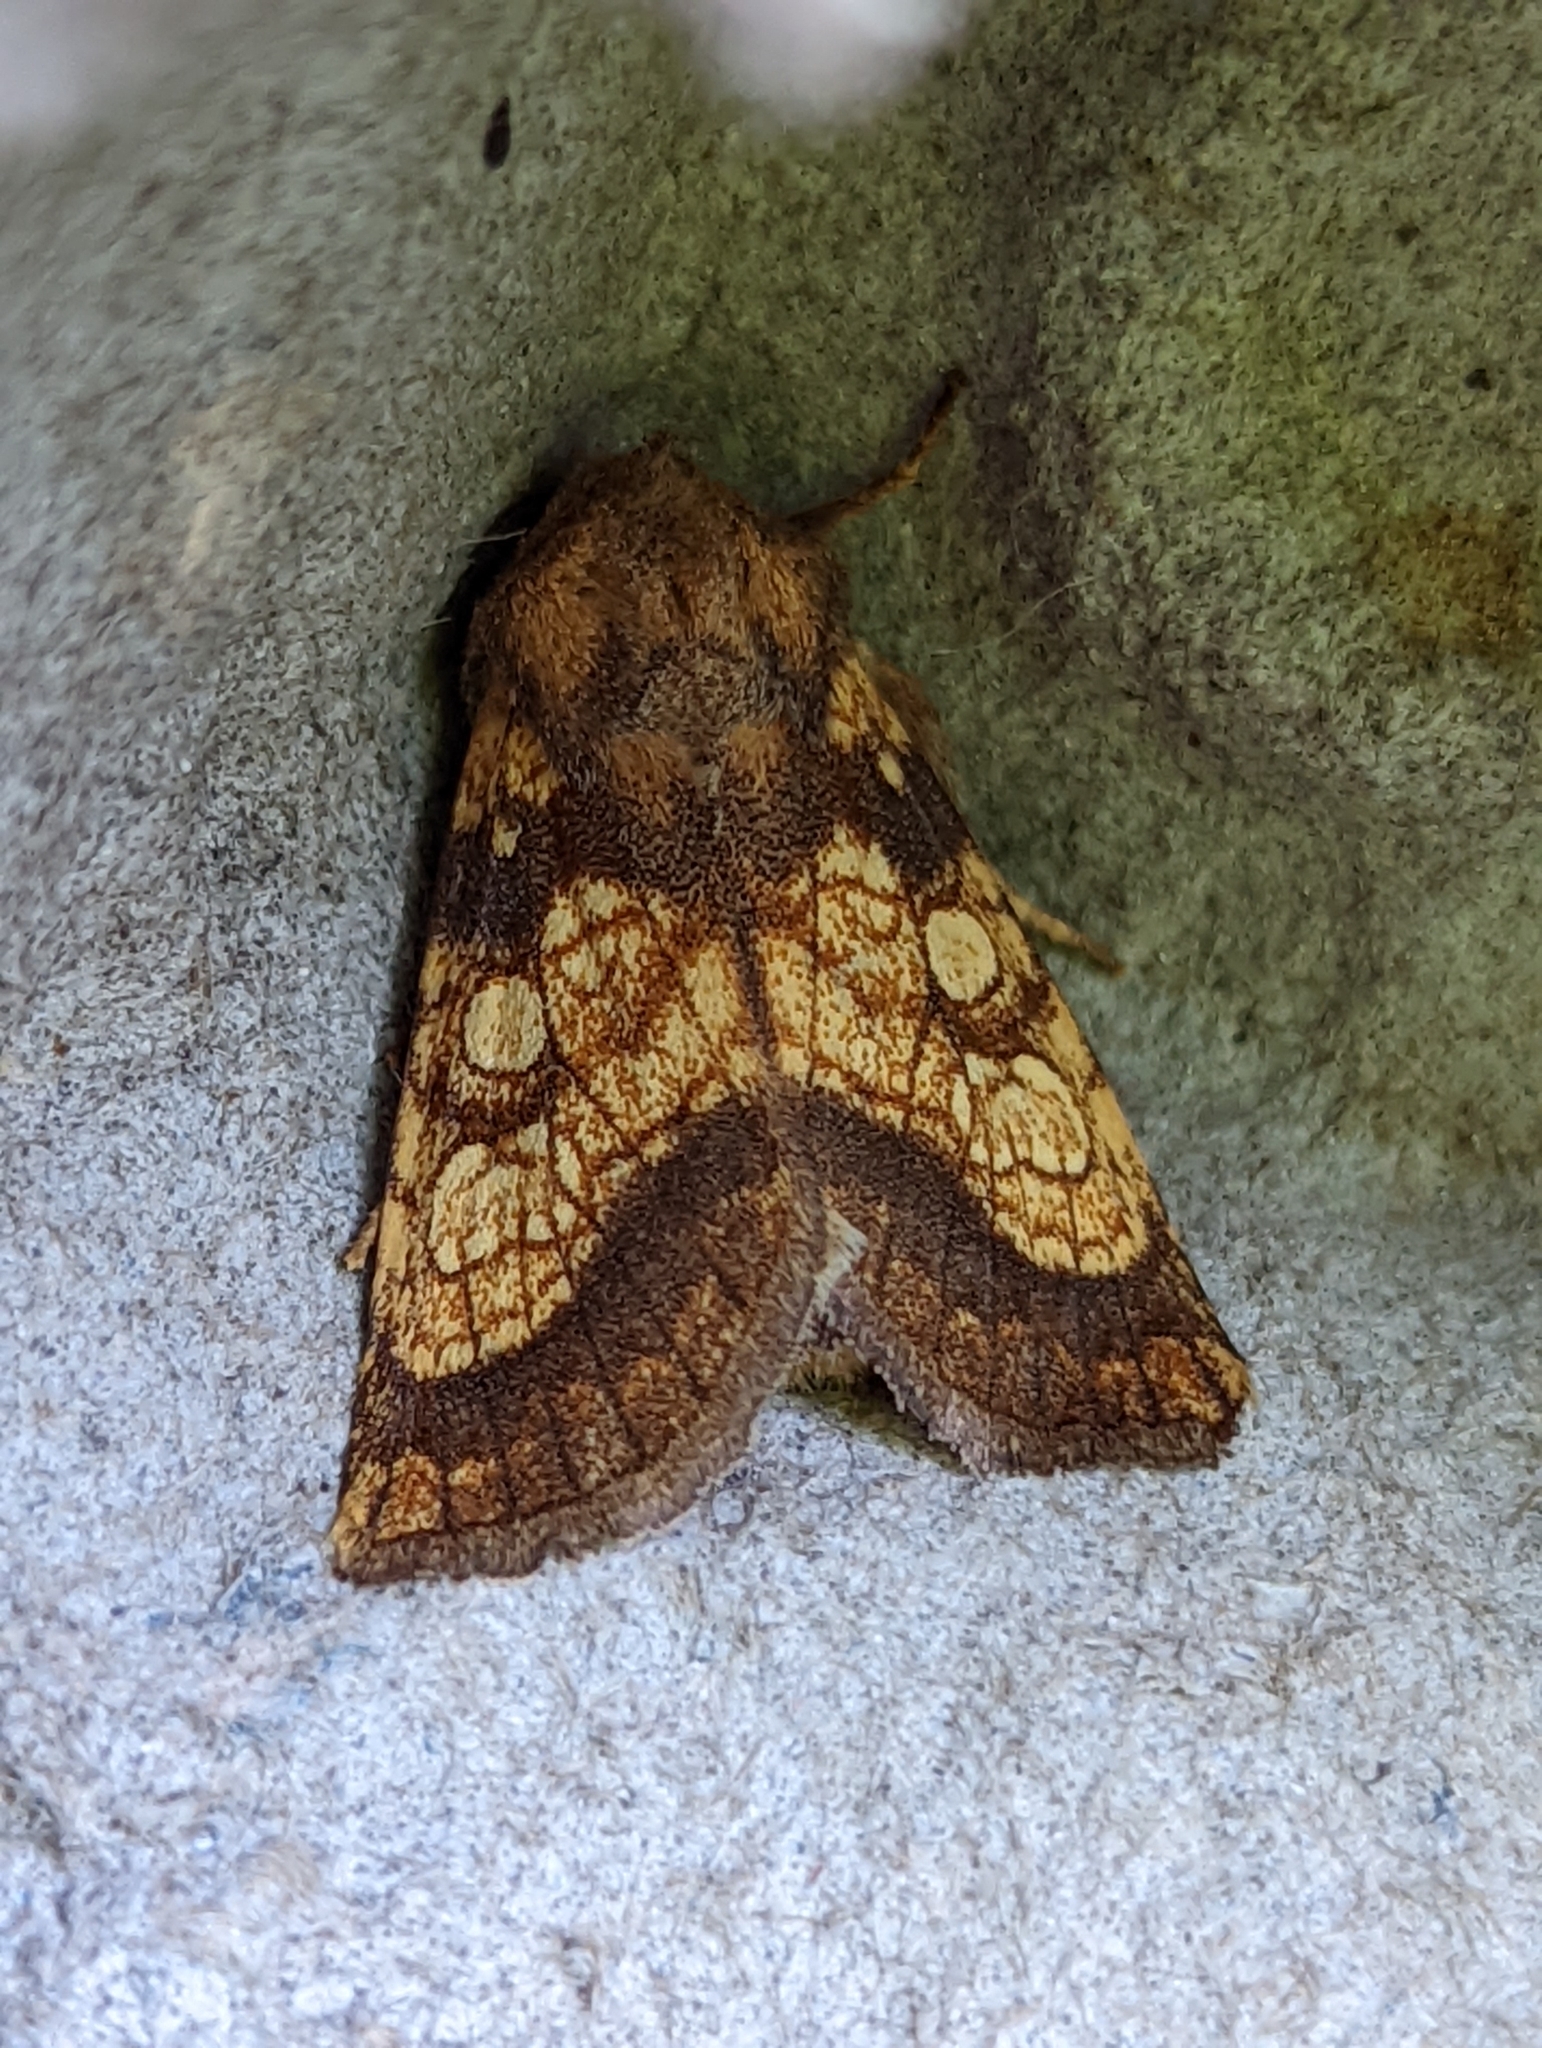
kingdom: Animalia
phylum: Arthropoda
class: Insecta
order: Lepidoptera
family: Noctuidae
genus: Gortyna
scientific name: Gortyna flavago
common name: Frosted orange
